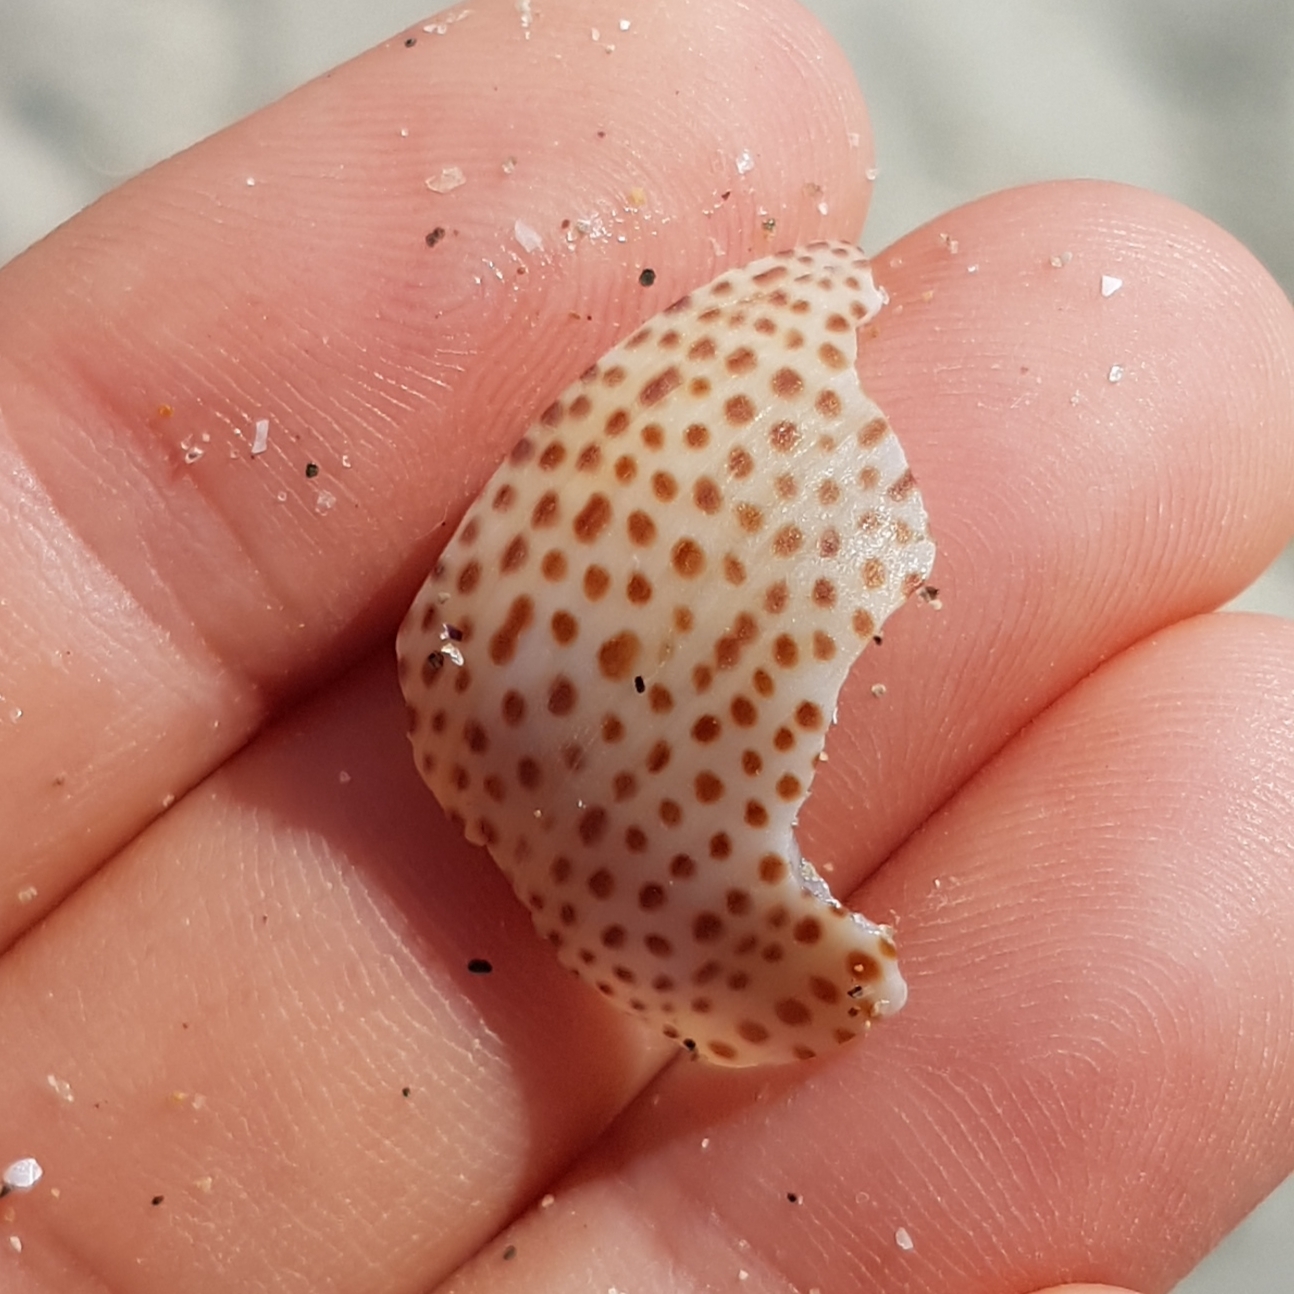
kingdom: Animalia
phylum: Mollusca
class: Gastropoda
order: Littorinimorpha
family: Naticidae
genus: Naticarius
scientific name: Naticarius stercusmuscarum
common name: Fly-speck moonsnail
